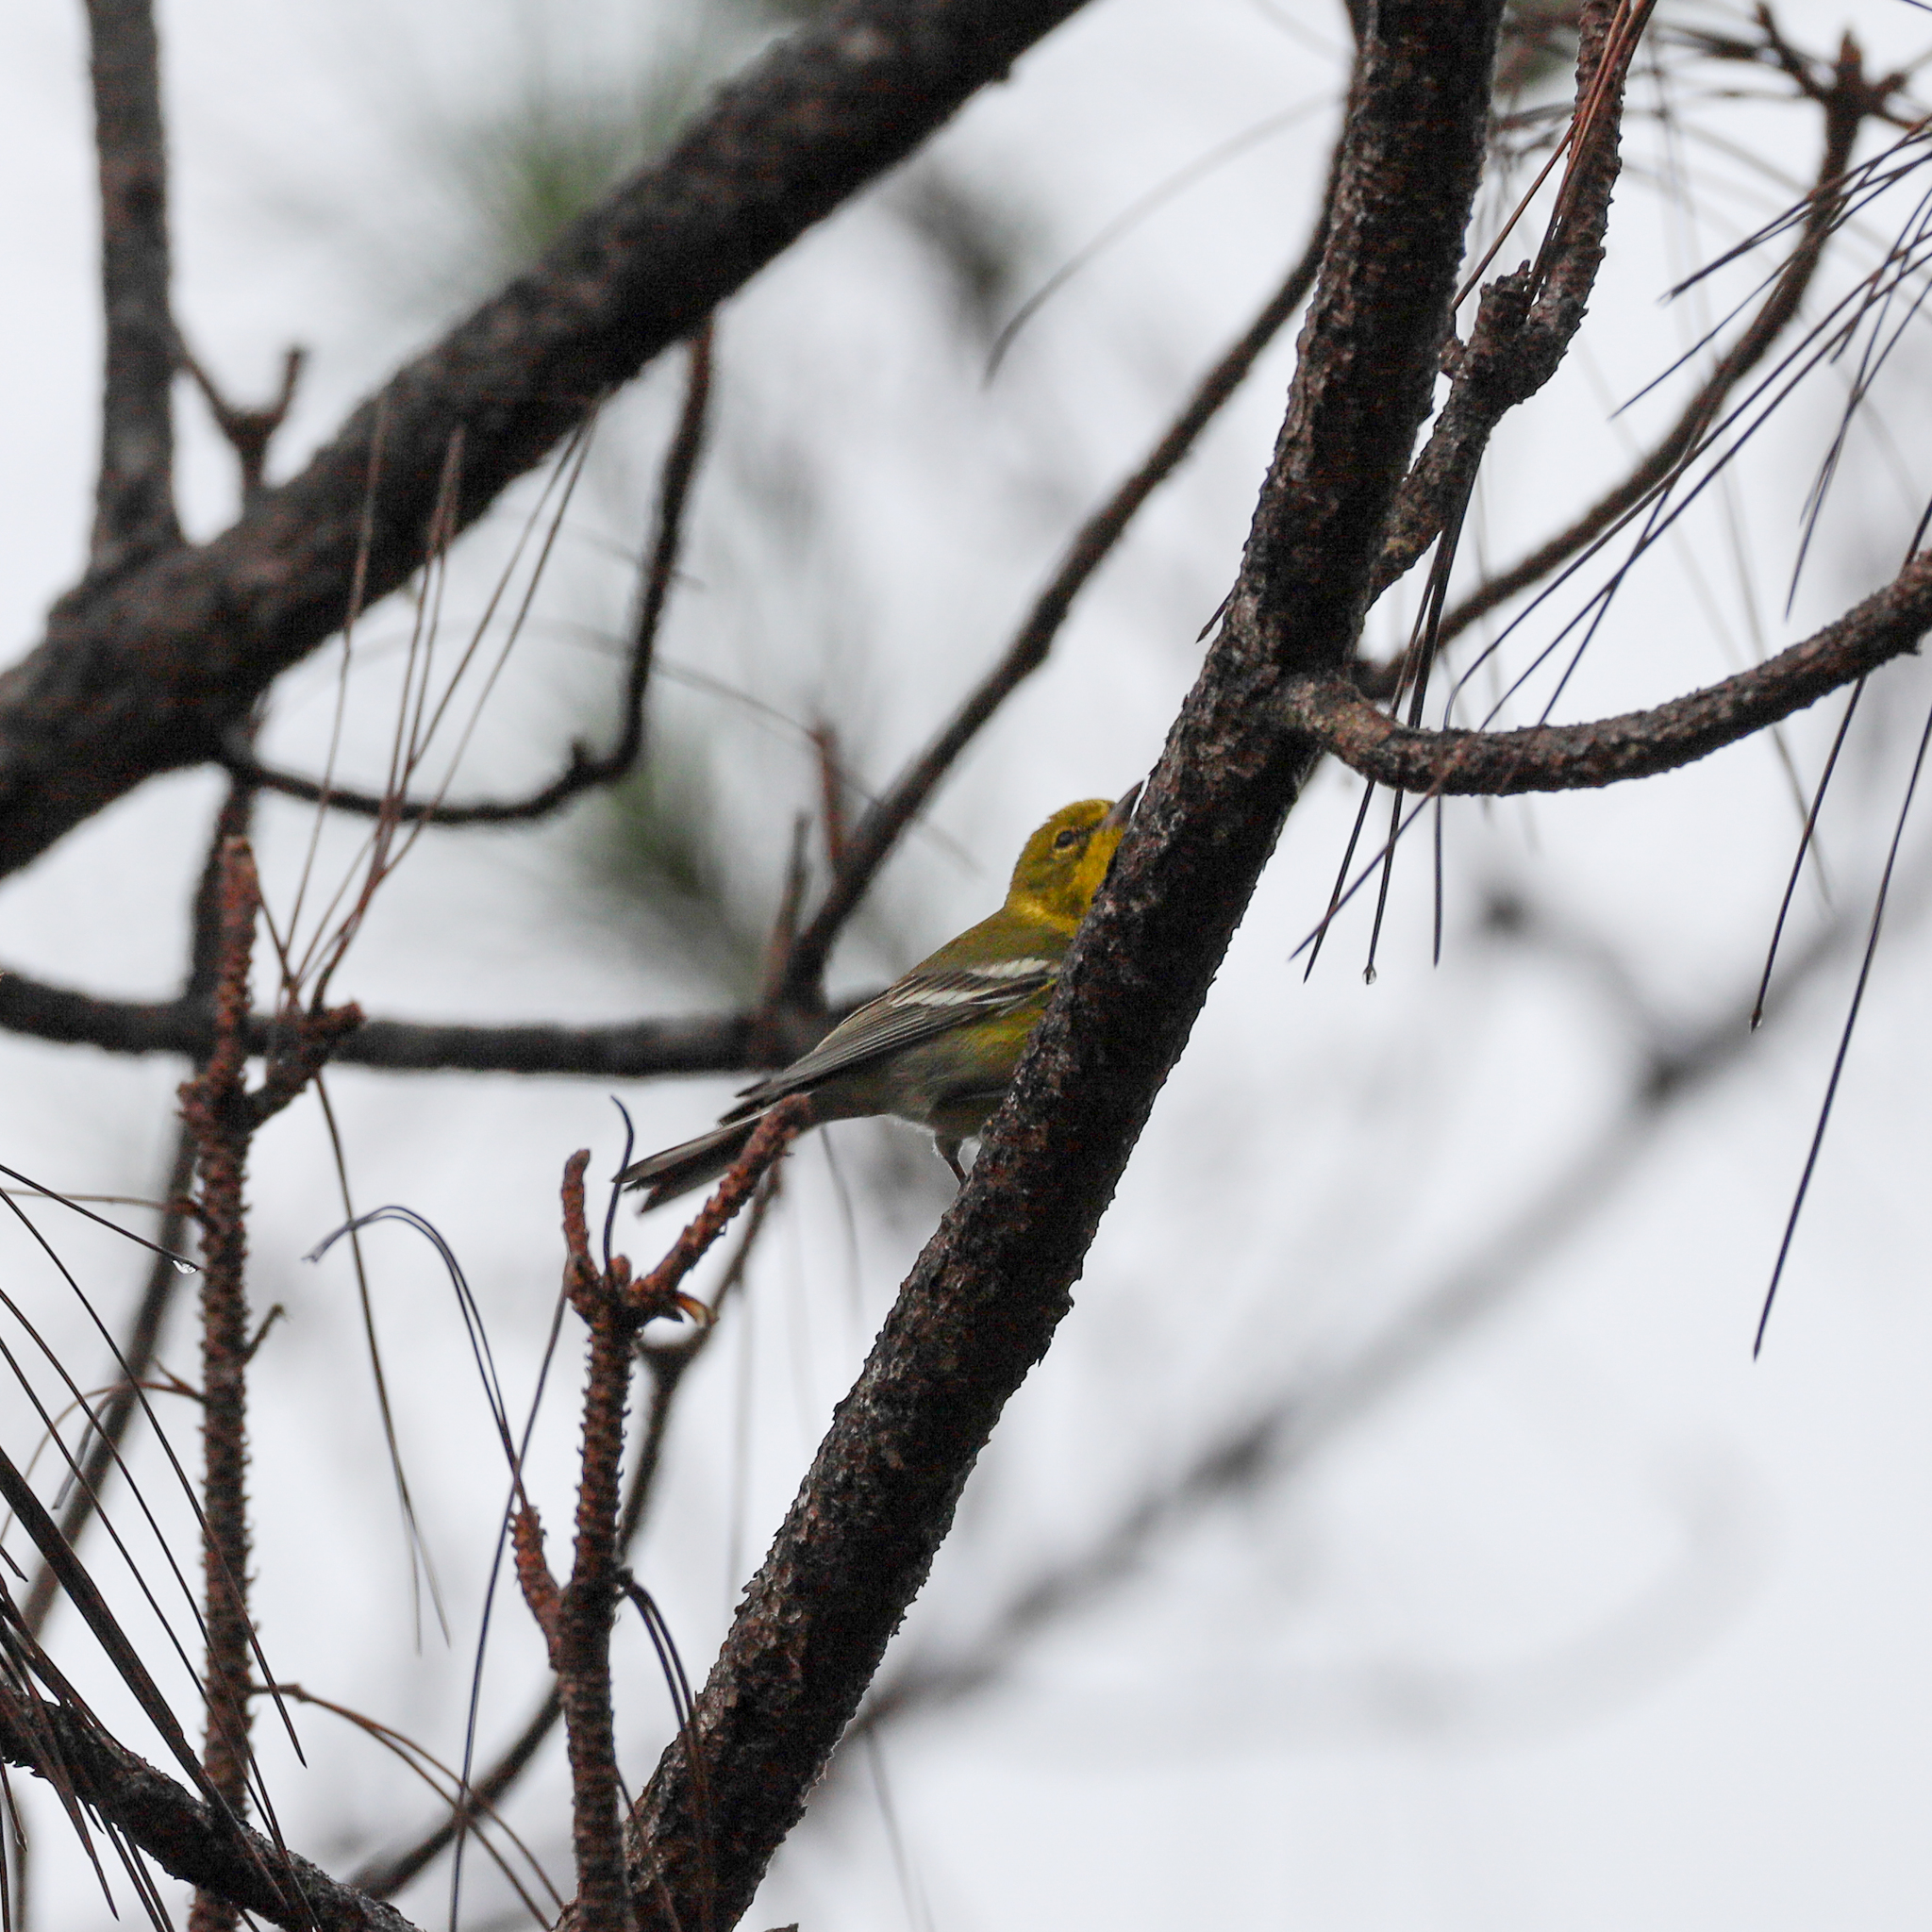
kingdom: Animalia
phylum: Chordata
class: Aves
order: Passeriformes
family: Parulidae
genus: Setophaga
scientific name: Setophaga pinus
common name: Pine warbler
